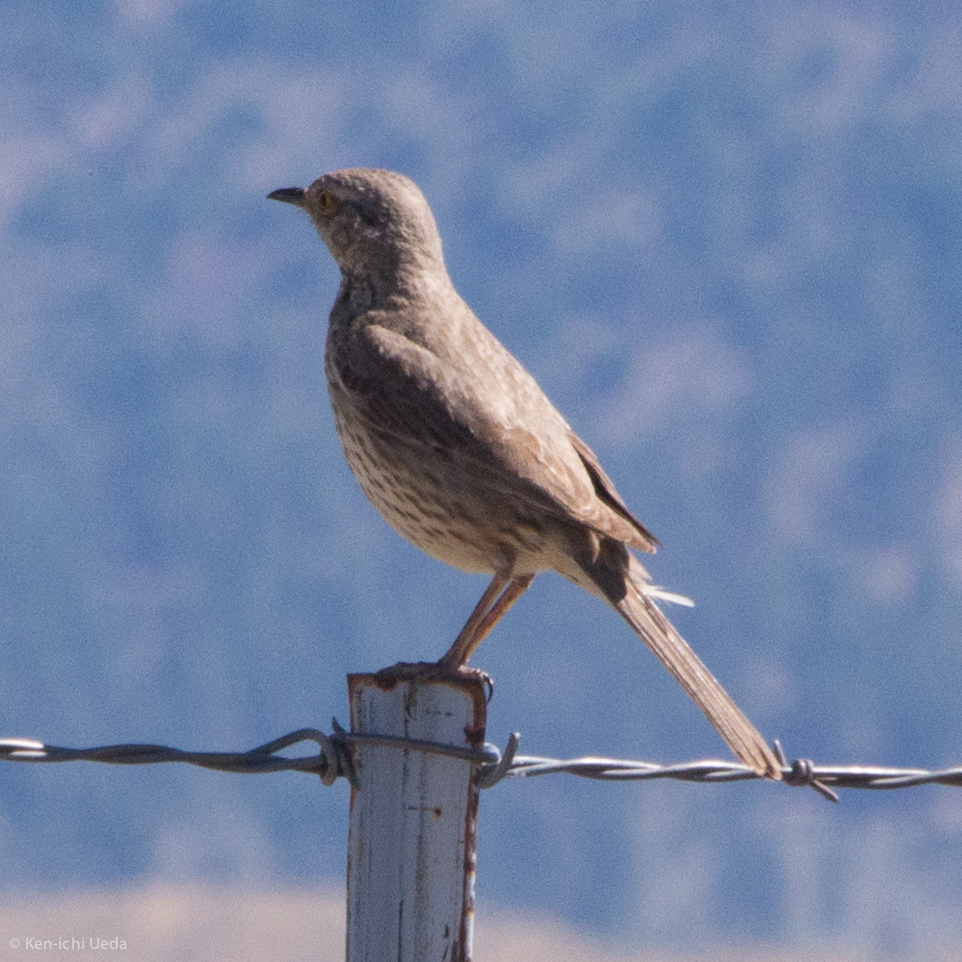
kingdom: Animalia
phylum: Chordata
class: Aves
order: Passeriformes
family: Mimidae
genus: Oreoscoptes
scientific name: Oreoscoptes montanus
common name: Sage thrasher
